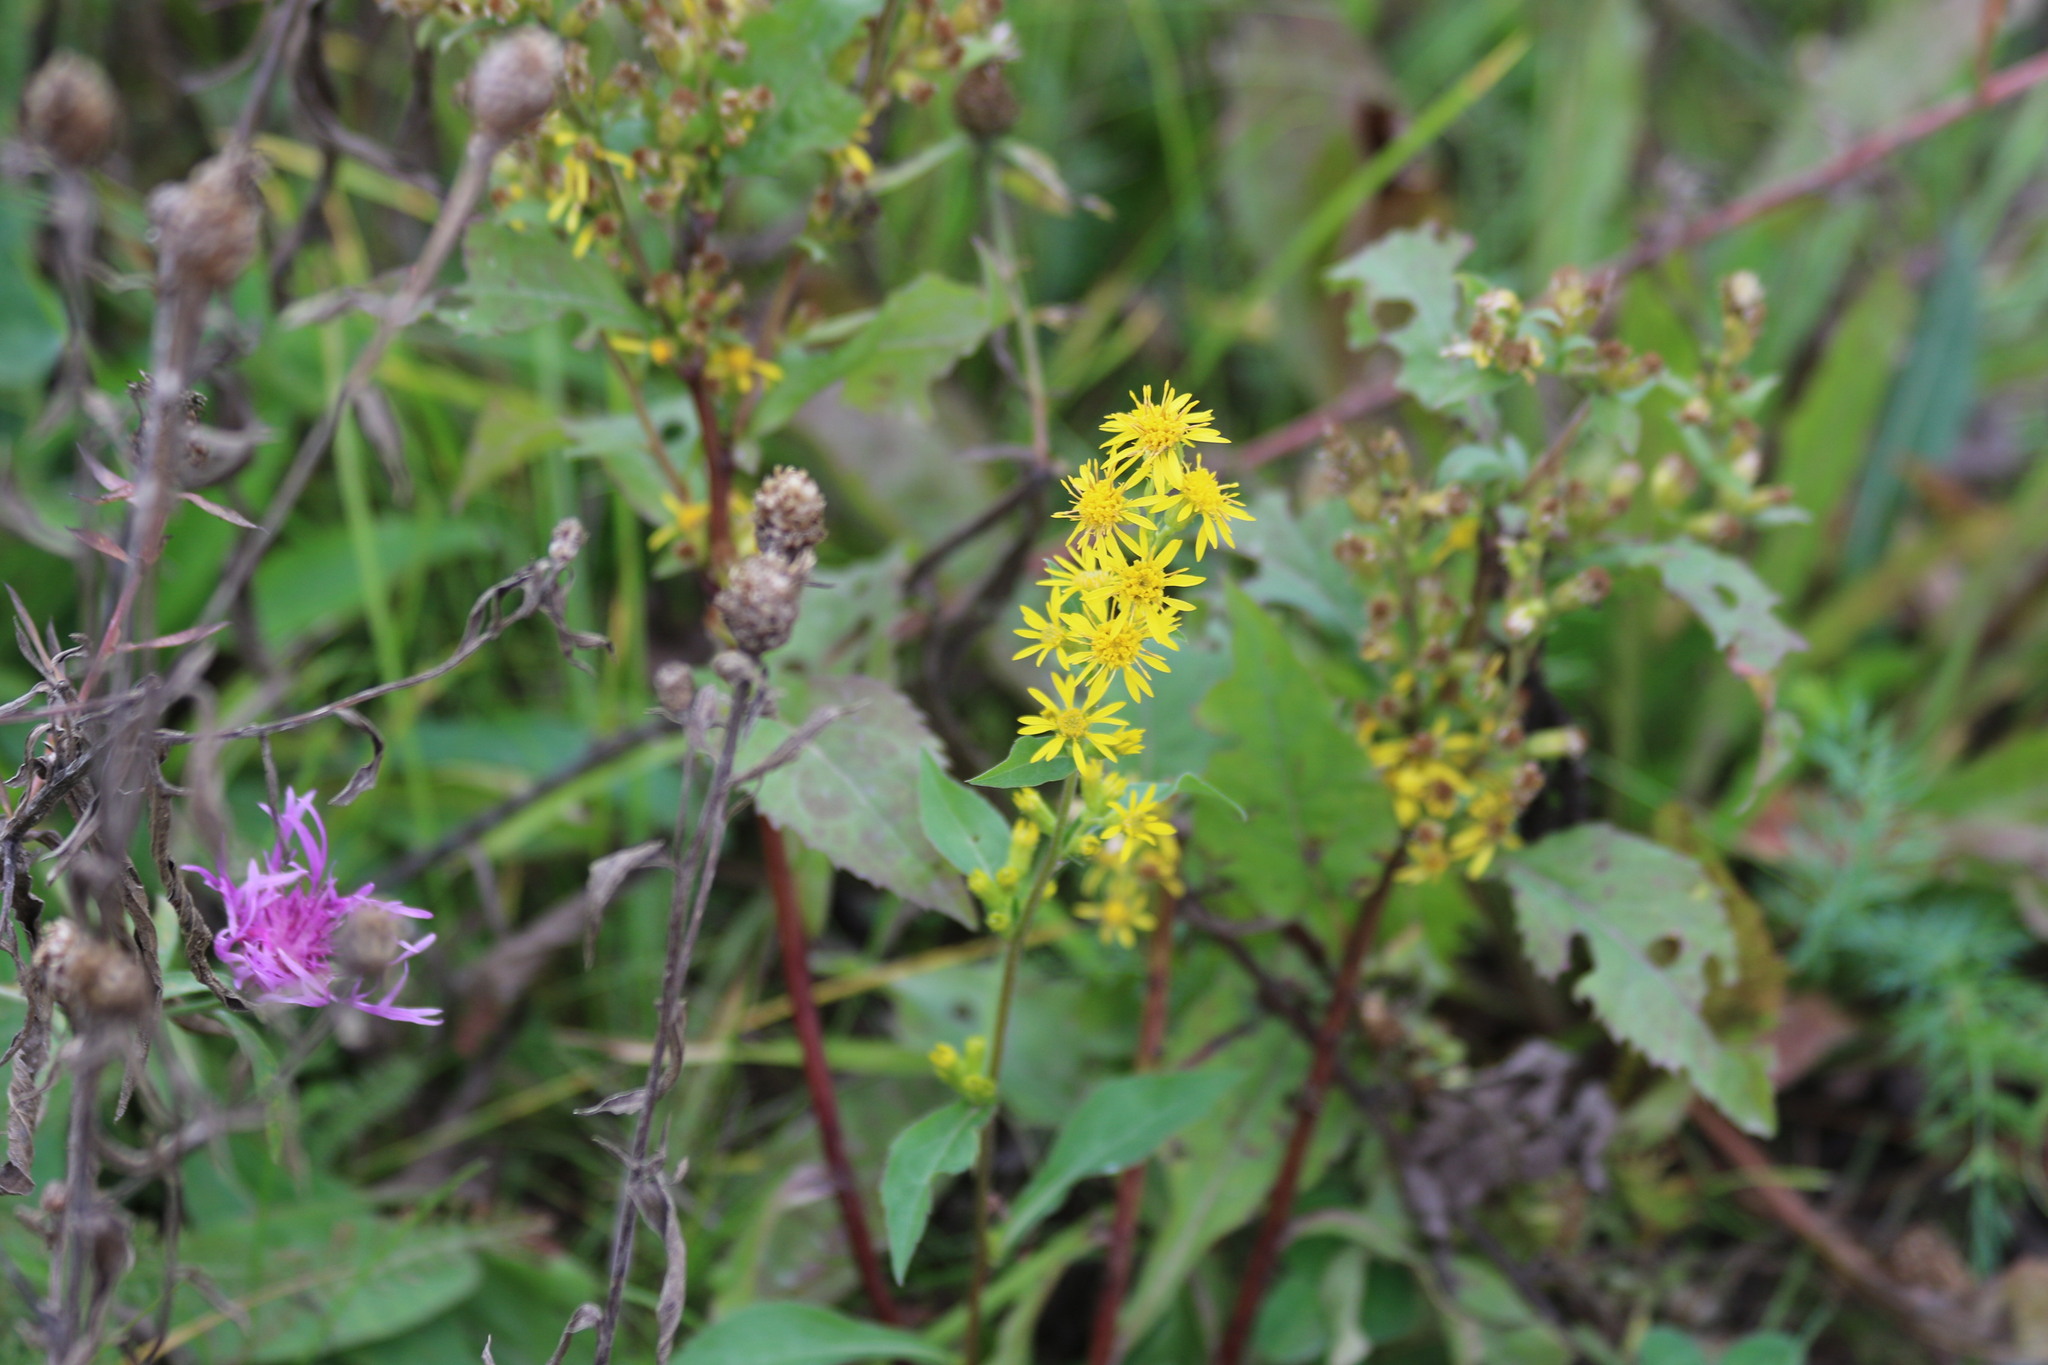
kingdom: Plantae
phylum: Tracheophyta
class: Magnoliopsida
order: Asterales
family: Asteraceae
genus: Solidago
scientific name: Solidago virgaurea
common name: Goldenrod
